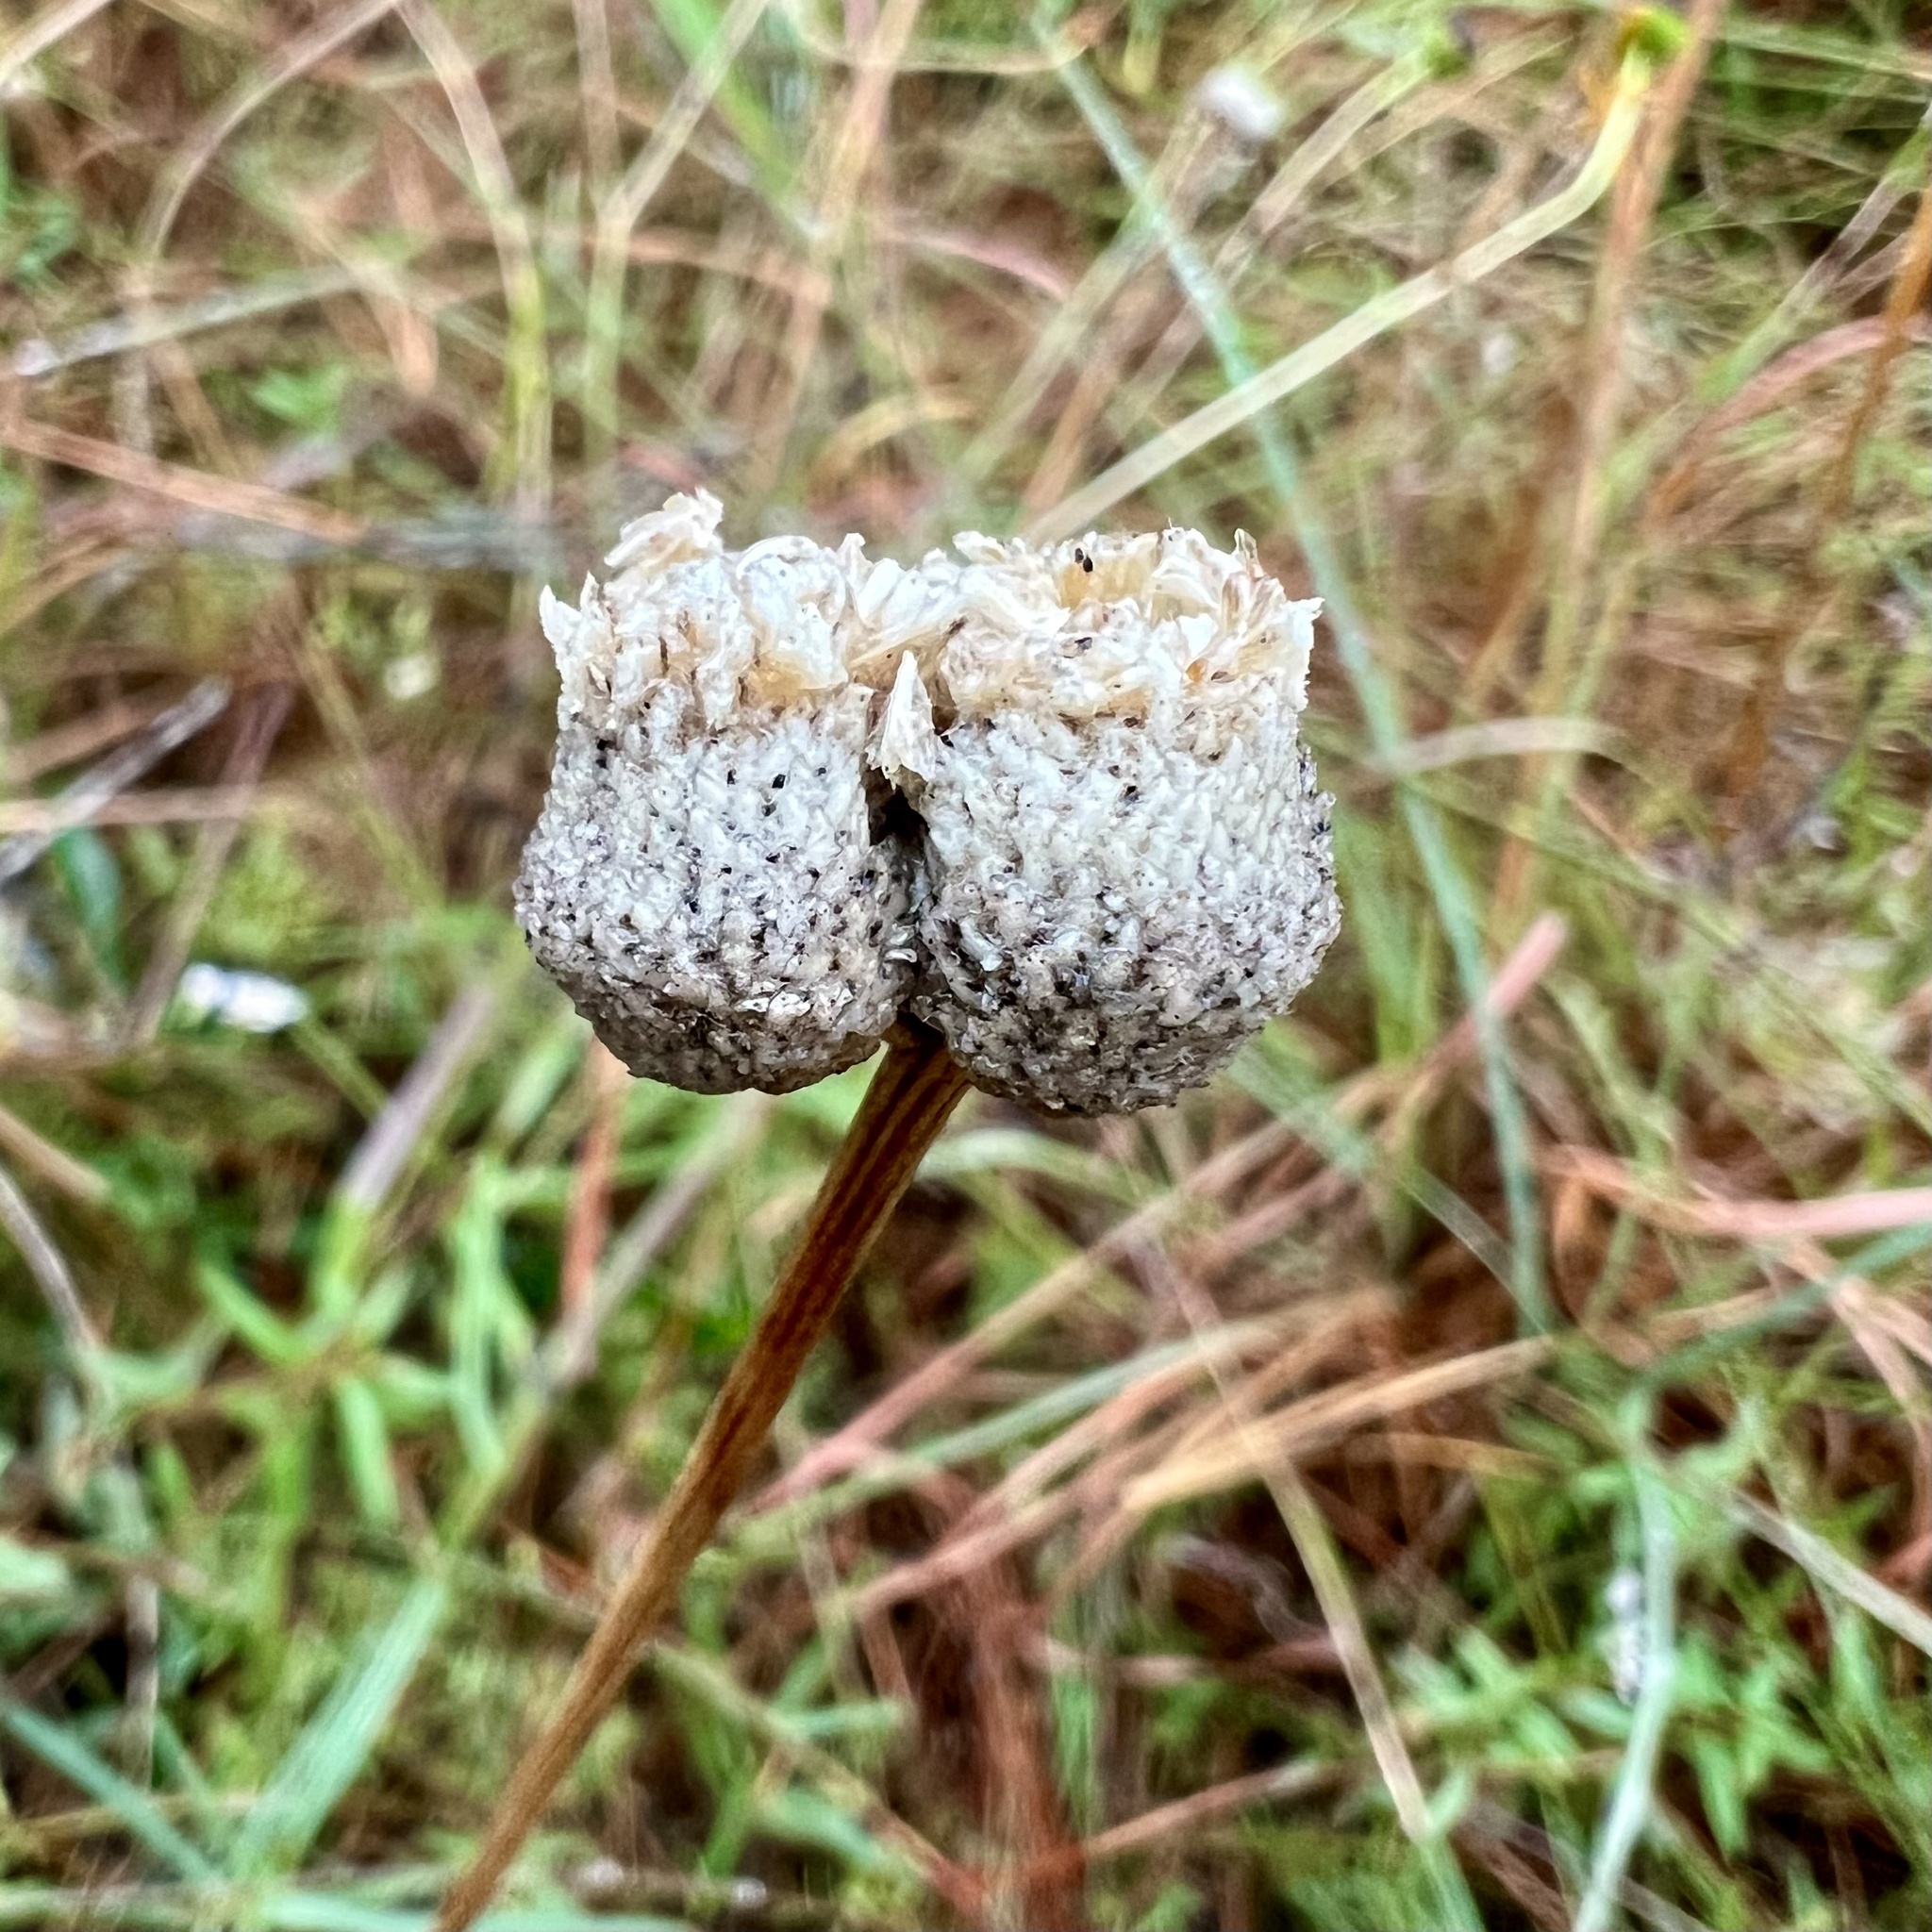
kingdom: Plantae
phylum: Tracheophyta
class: Liliopsida
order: Poales
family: Eriocaulaceae
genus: Eriocaulon
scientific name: Eriocaulon decangulare
